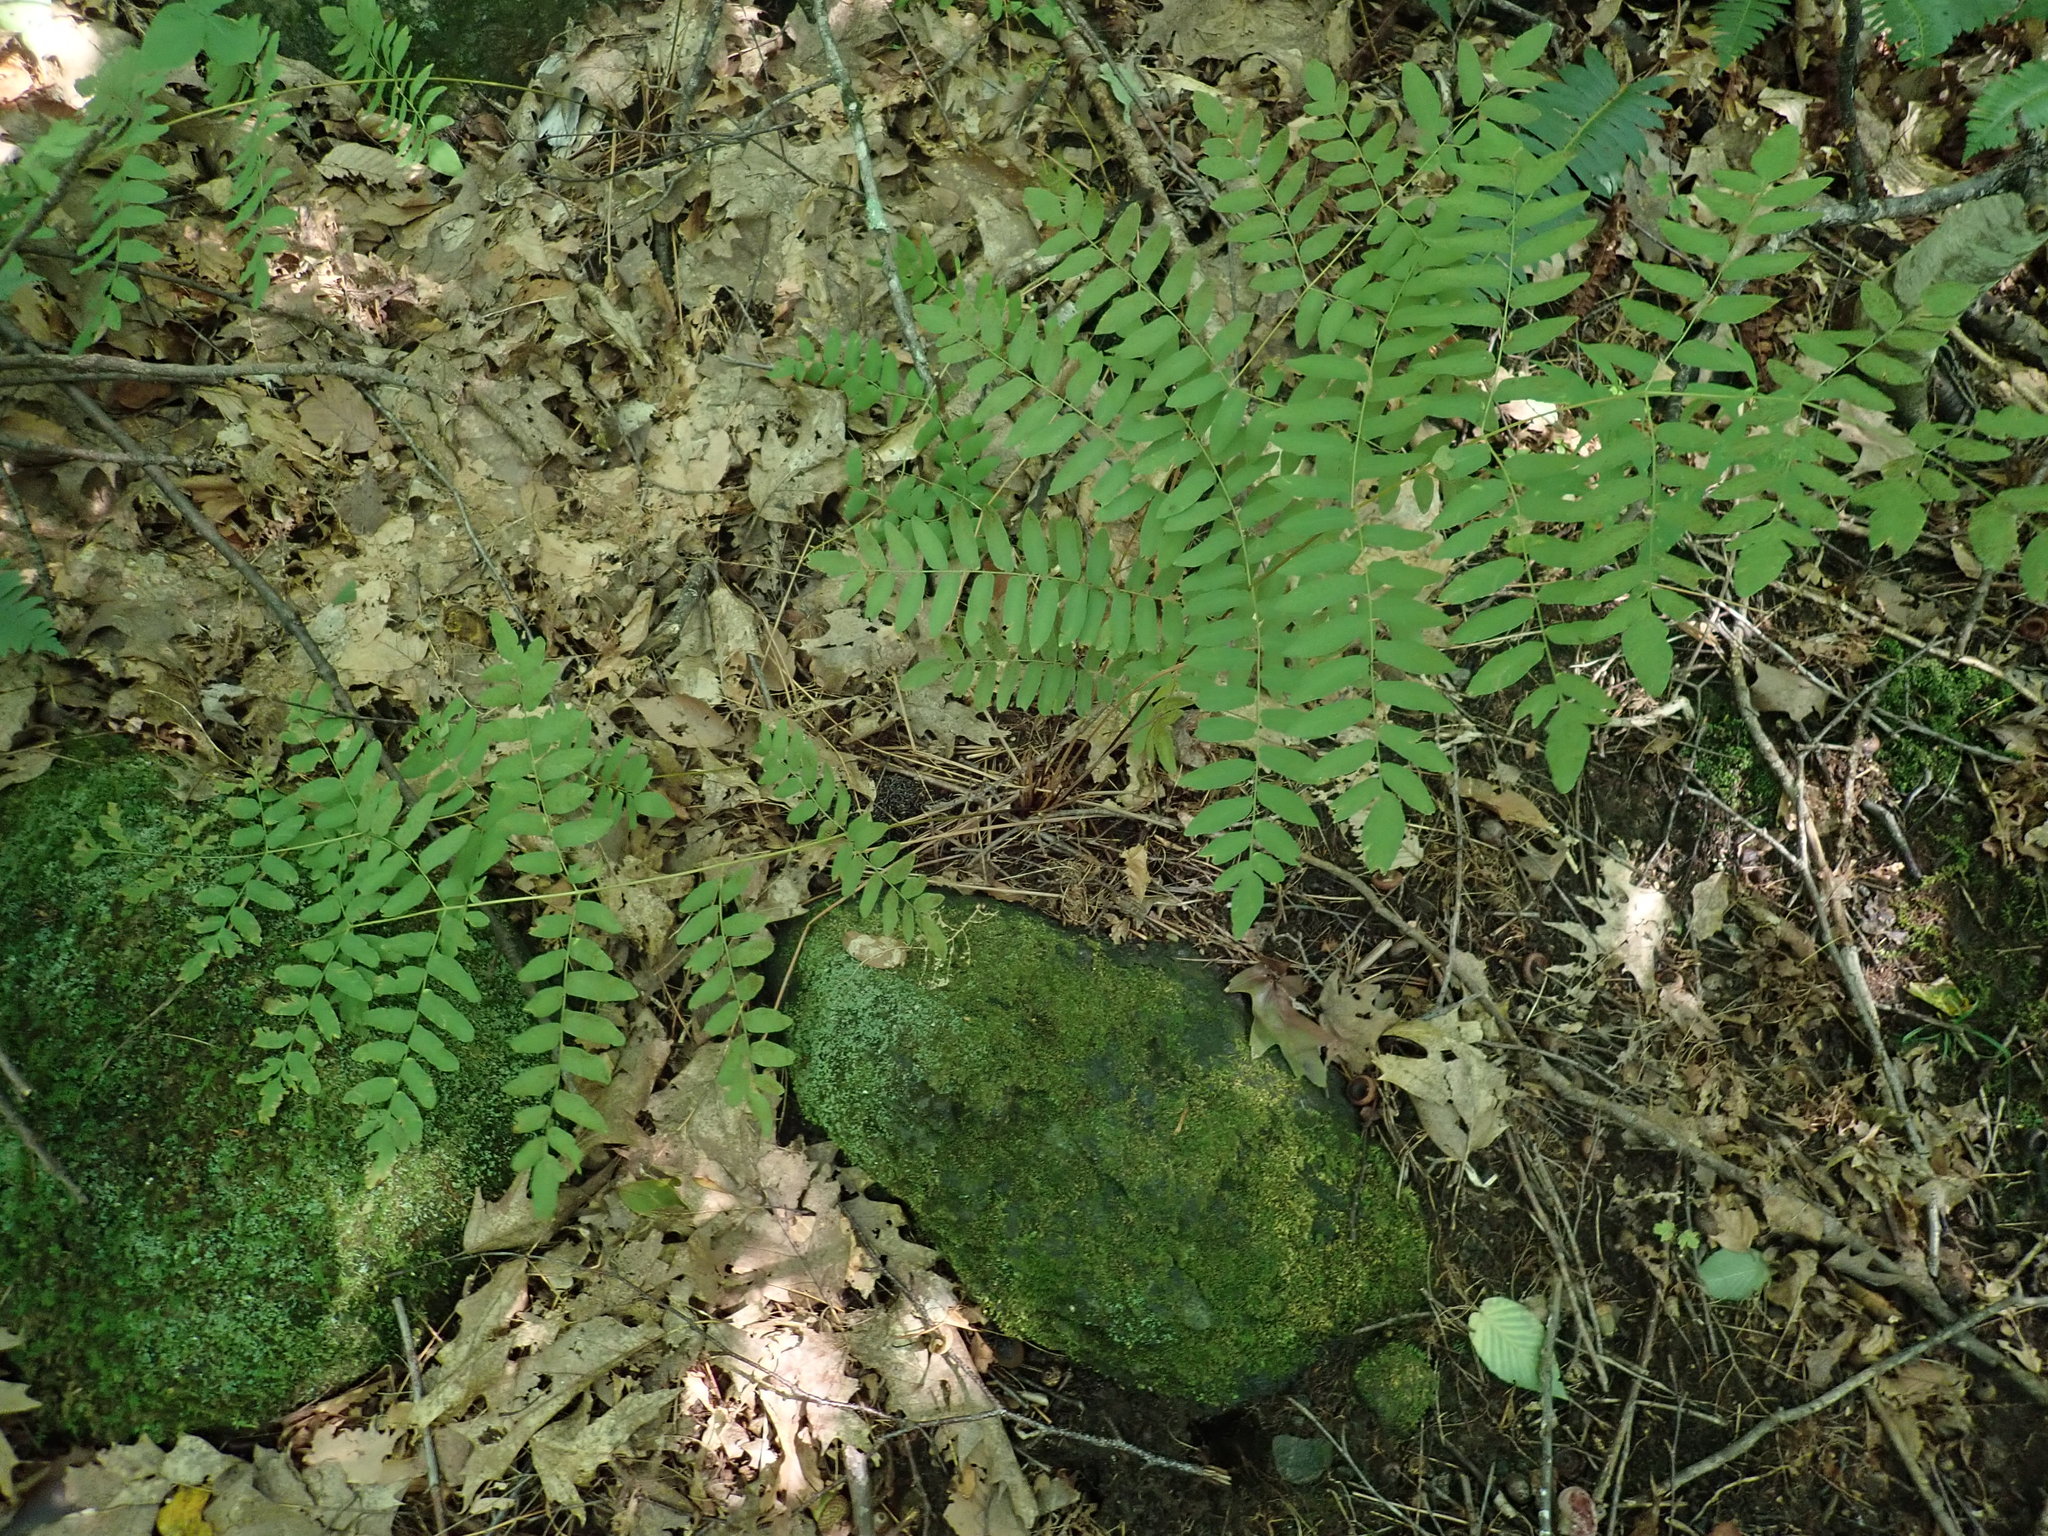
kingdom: Plantae
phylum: Tracheophyta
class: Polypodiopsida
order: Osmundales
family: Osmundaceae
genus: Osmunda
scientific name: Osmunda spectabilis
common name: American royal fern
